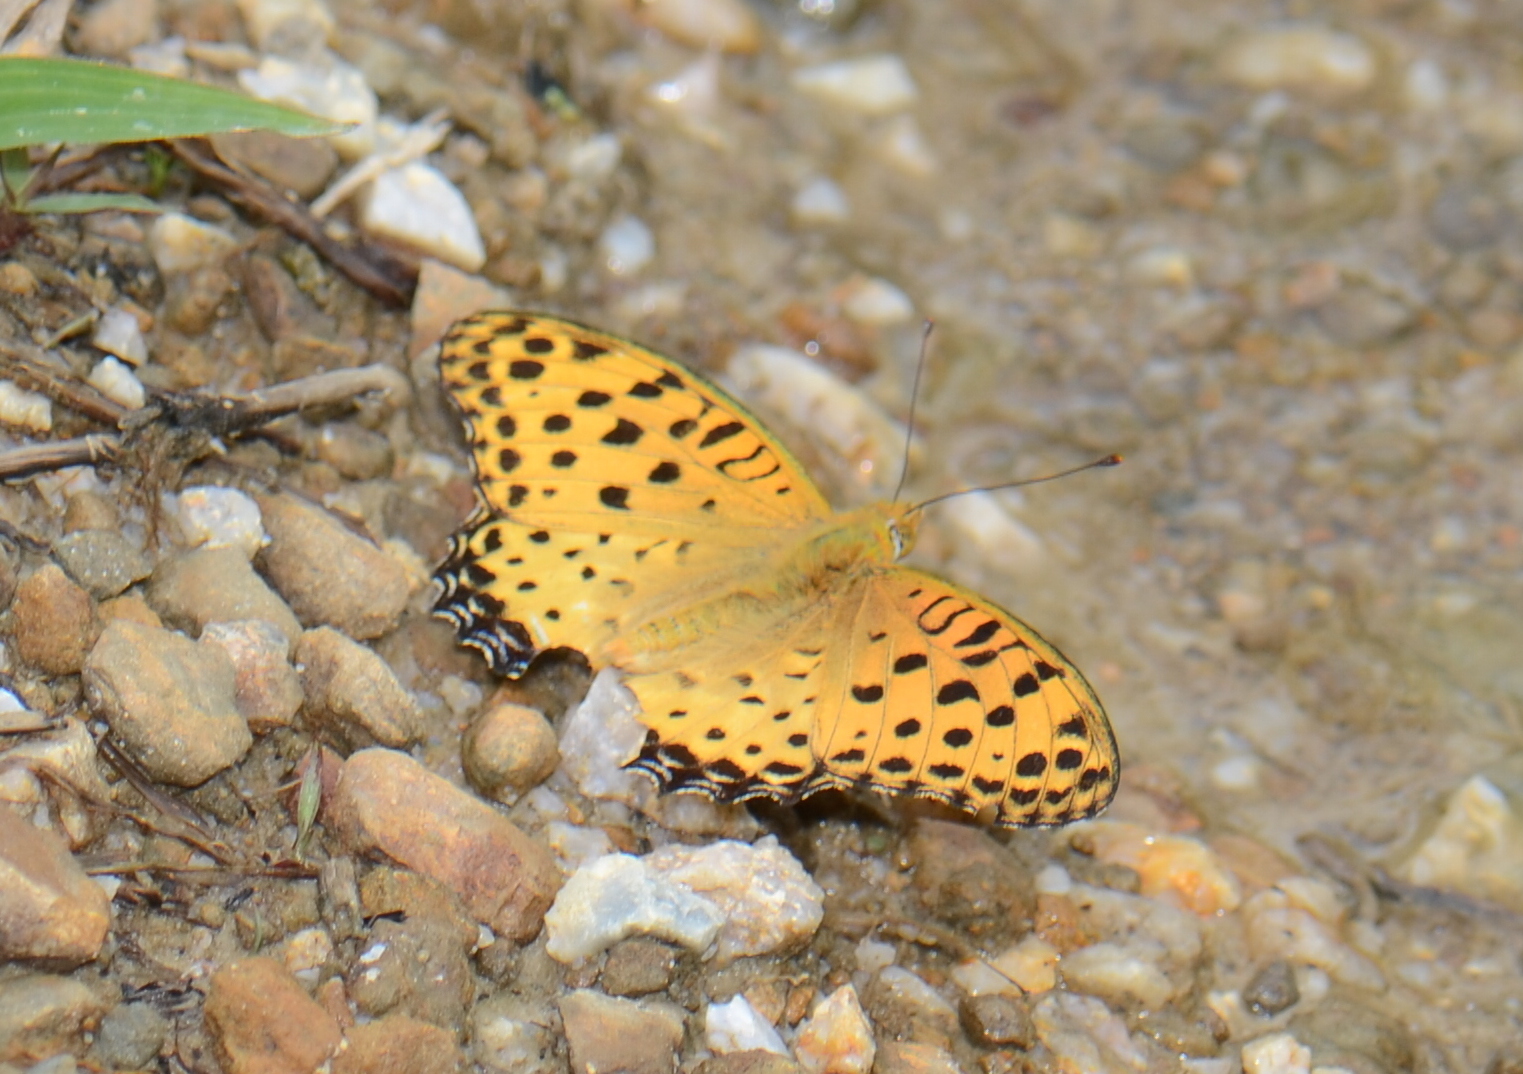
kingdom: Animalia
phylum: Arthropoda
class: Insecta
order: Lepidoptera
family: Nymphalidae
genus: Argynnis
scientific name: Argynnis hyperbius
